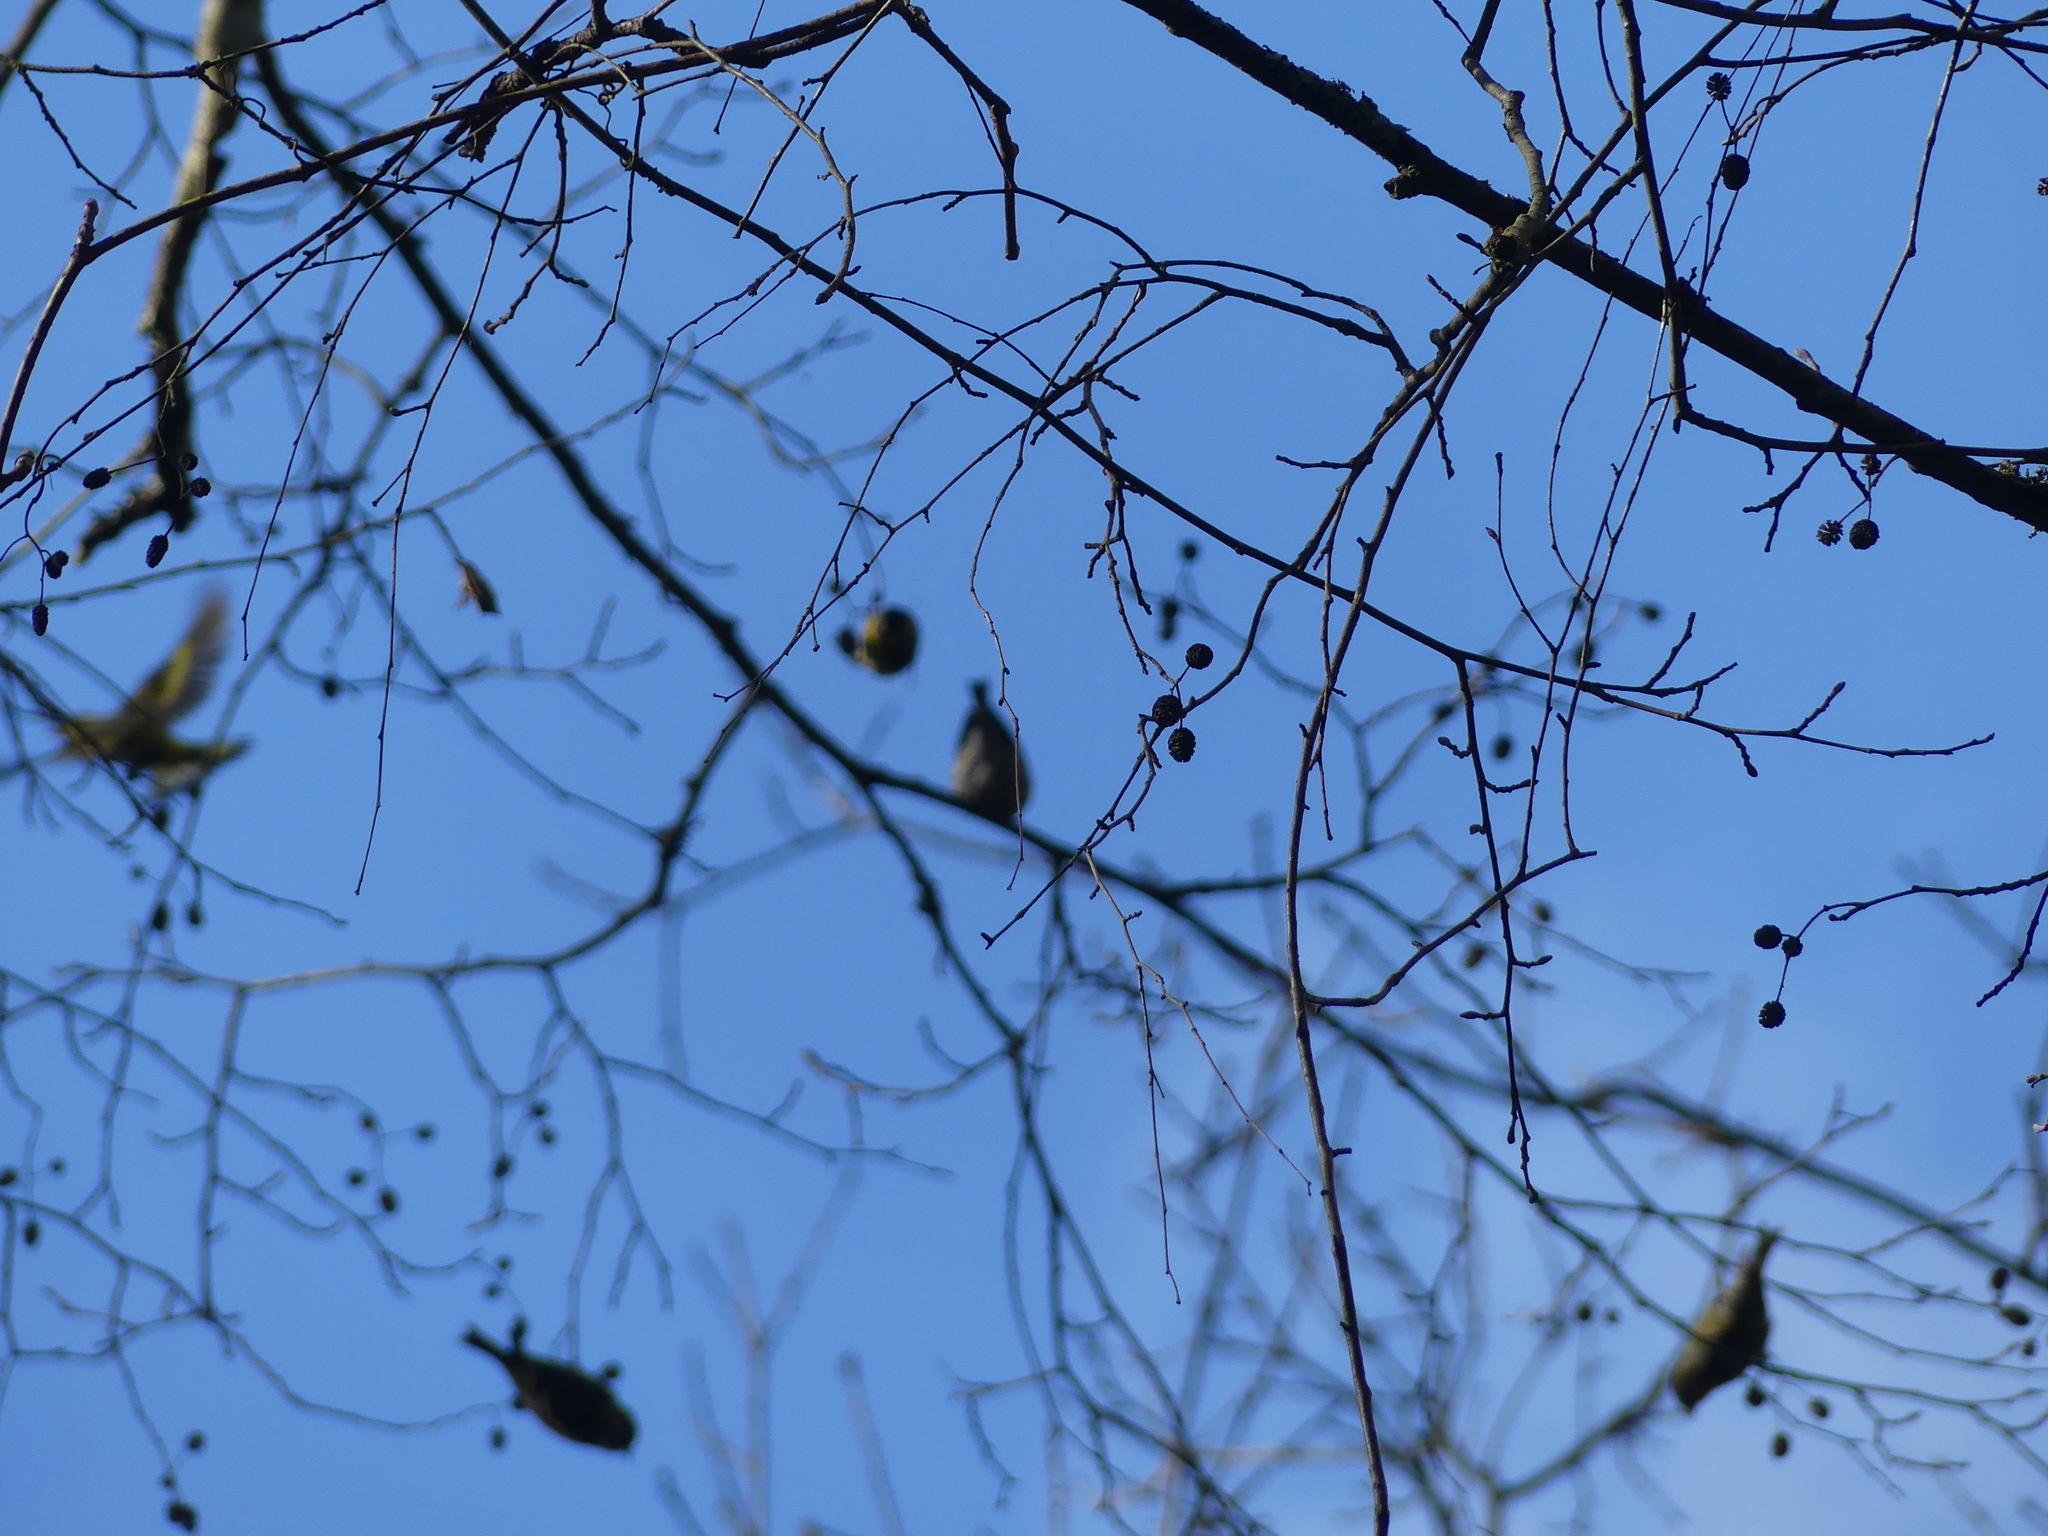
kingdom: Animalia
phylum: Chordata
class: Aves
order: Passeriformes
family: Fringillidae
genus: Spinus
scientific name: Spinus spinus
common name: Eurasian siskin
